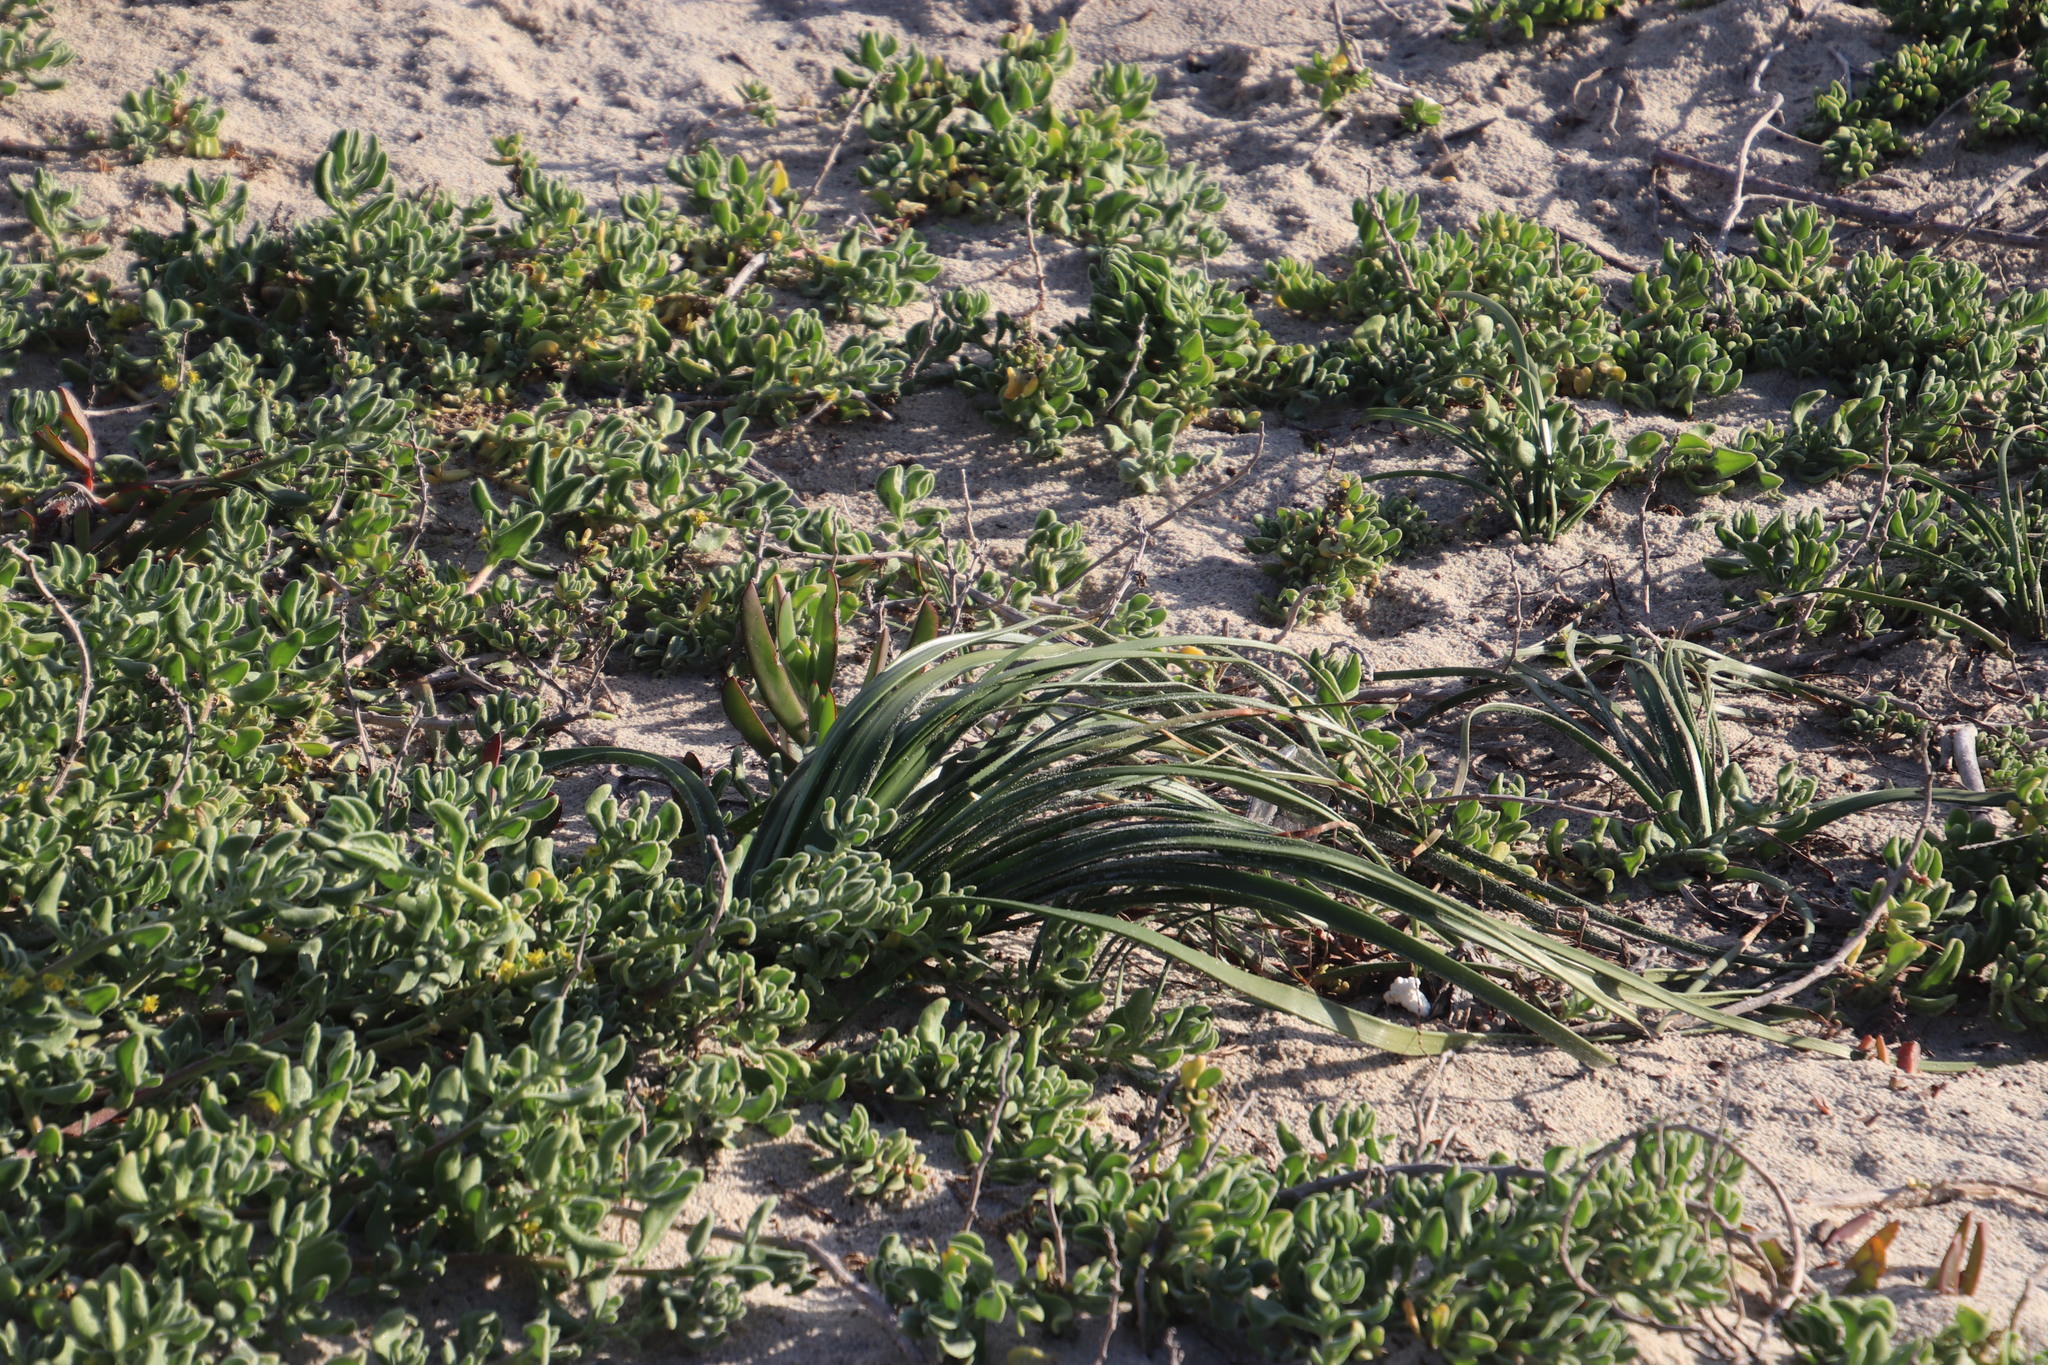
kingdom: Plantae
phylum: Tracheophyta
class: Liliopsida
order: Asparagales
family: Asphodelaceae
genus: Trachyandra
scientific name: Trachyandra divaricata
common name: Dune onionweed
